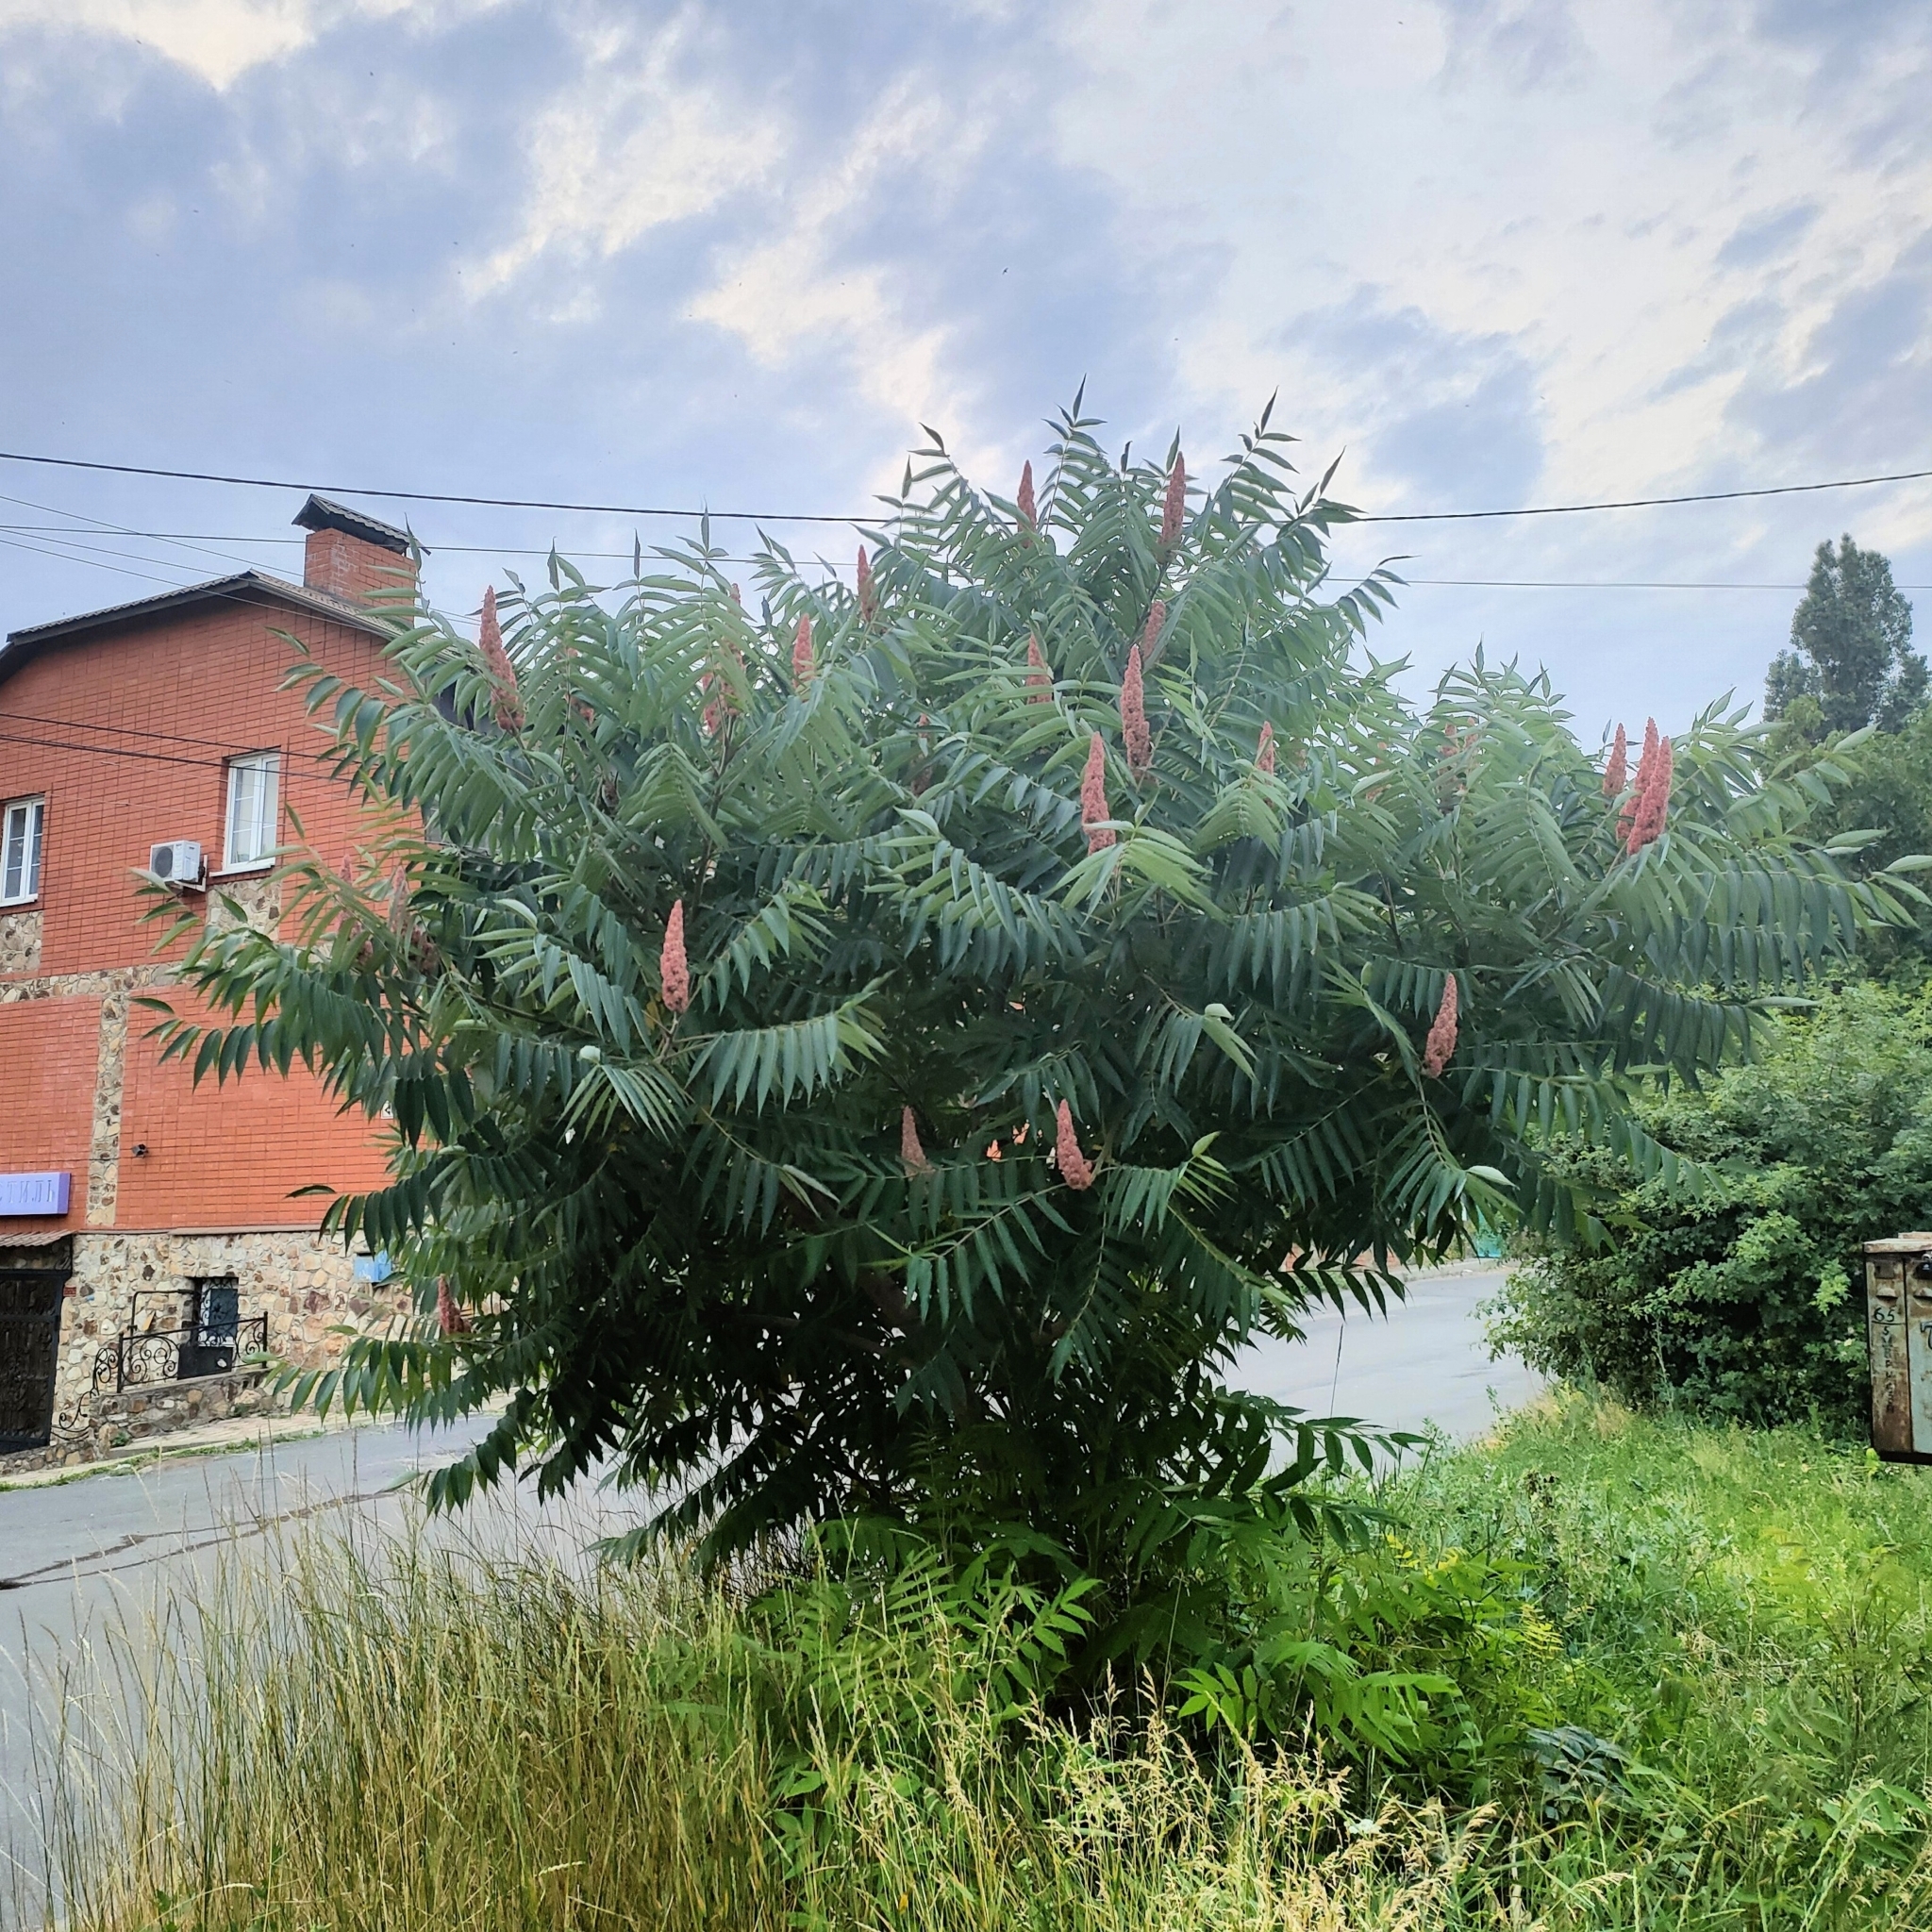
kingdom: Plantae
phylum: Tracheophyta
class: Magnoliopsida
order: Sapindales
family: Anacardiaceae
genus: Rhus
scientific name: Rhus typhina
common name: Staghorn sumac
